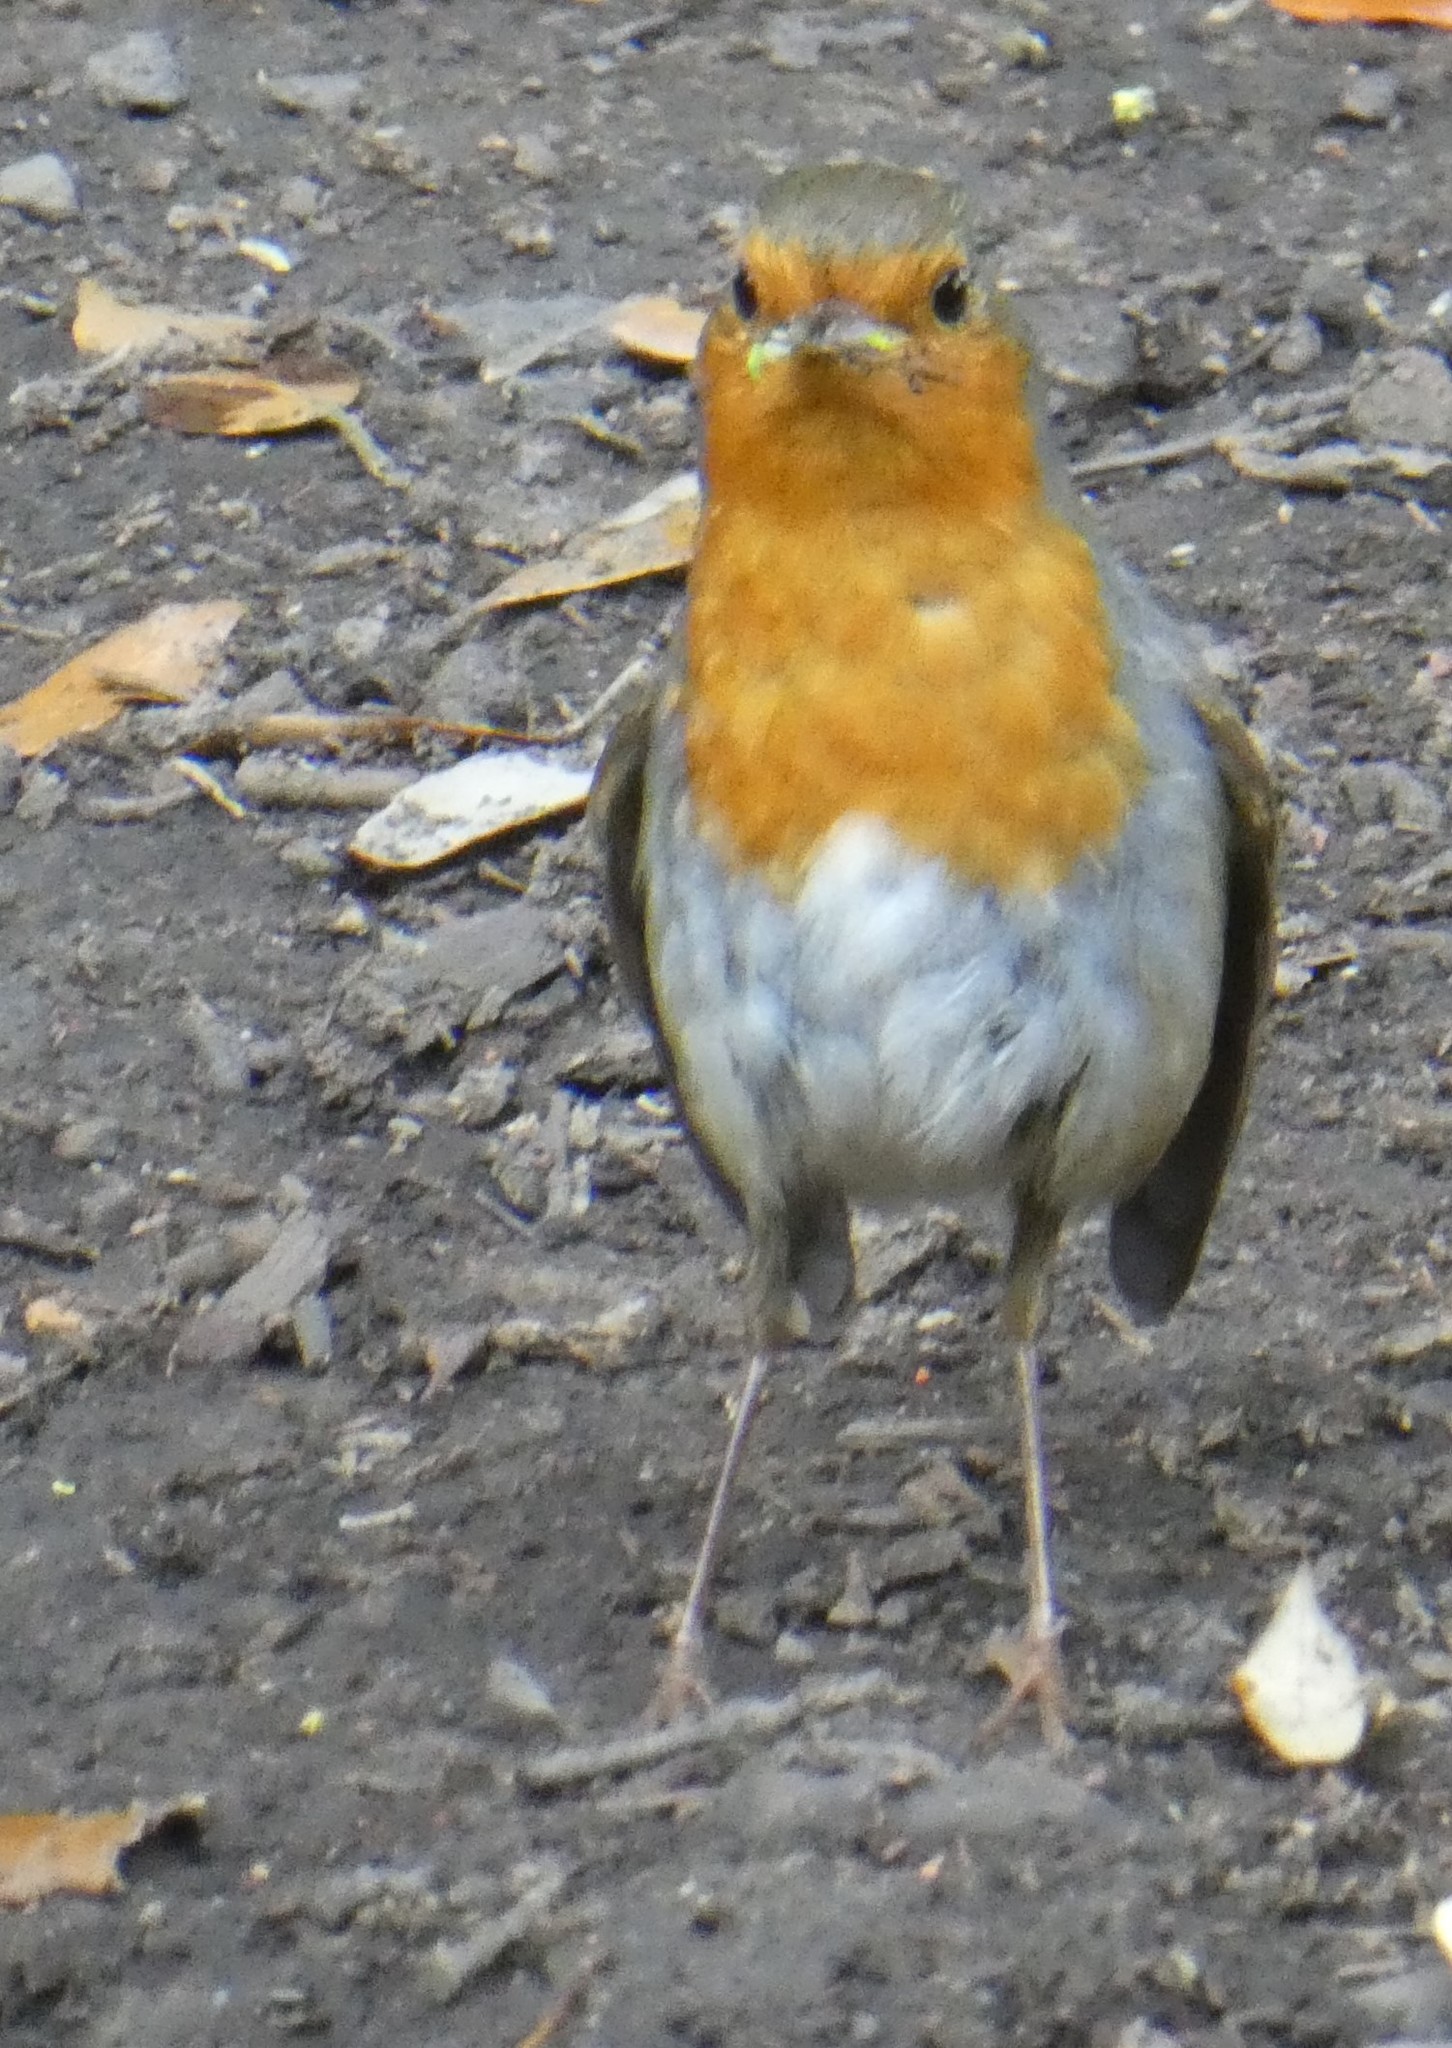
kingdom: Animalia
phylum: Chordata
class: Aves
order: Passeriformes
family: Muscicapidae
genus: Erithacus
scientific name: Erithacus rubecula
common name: European robin
